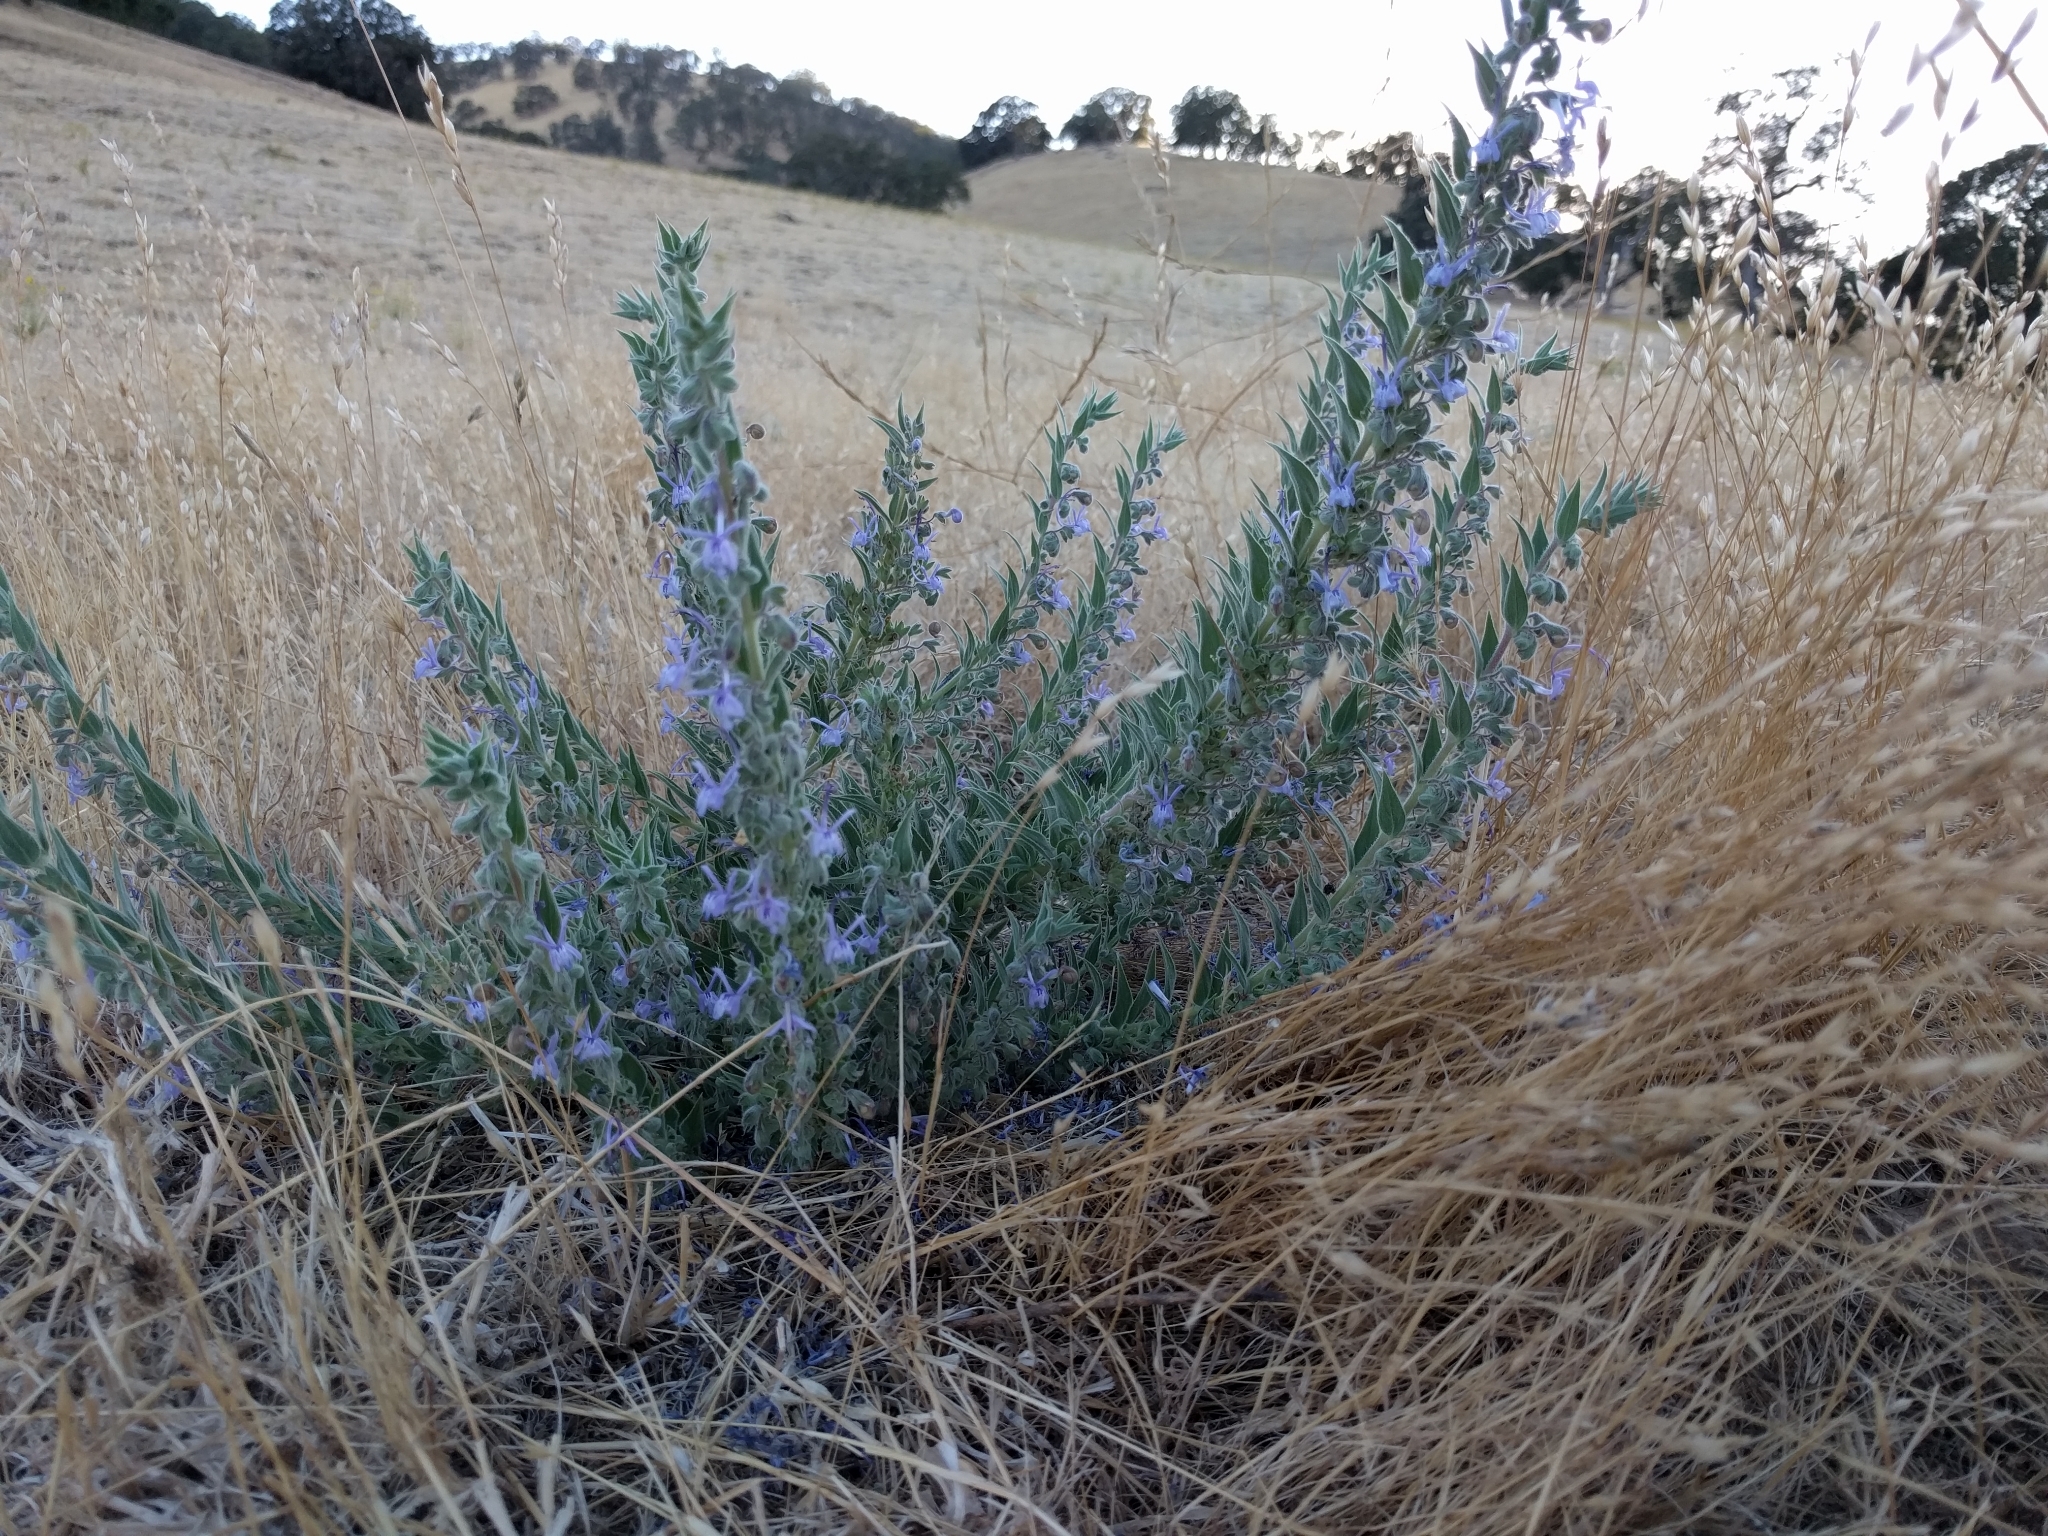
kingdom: Plantae
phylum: Tracheophyta
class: Magnoliopsida
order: Lamiales
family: Lamiaceae
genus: Trichostema
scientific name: Trichostema lanceolatum
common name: Vinegar-weed
